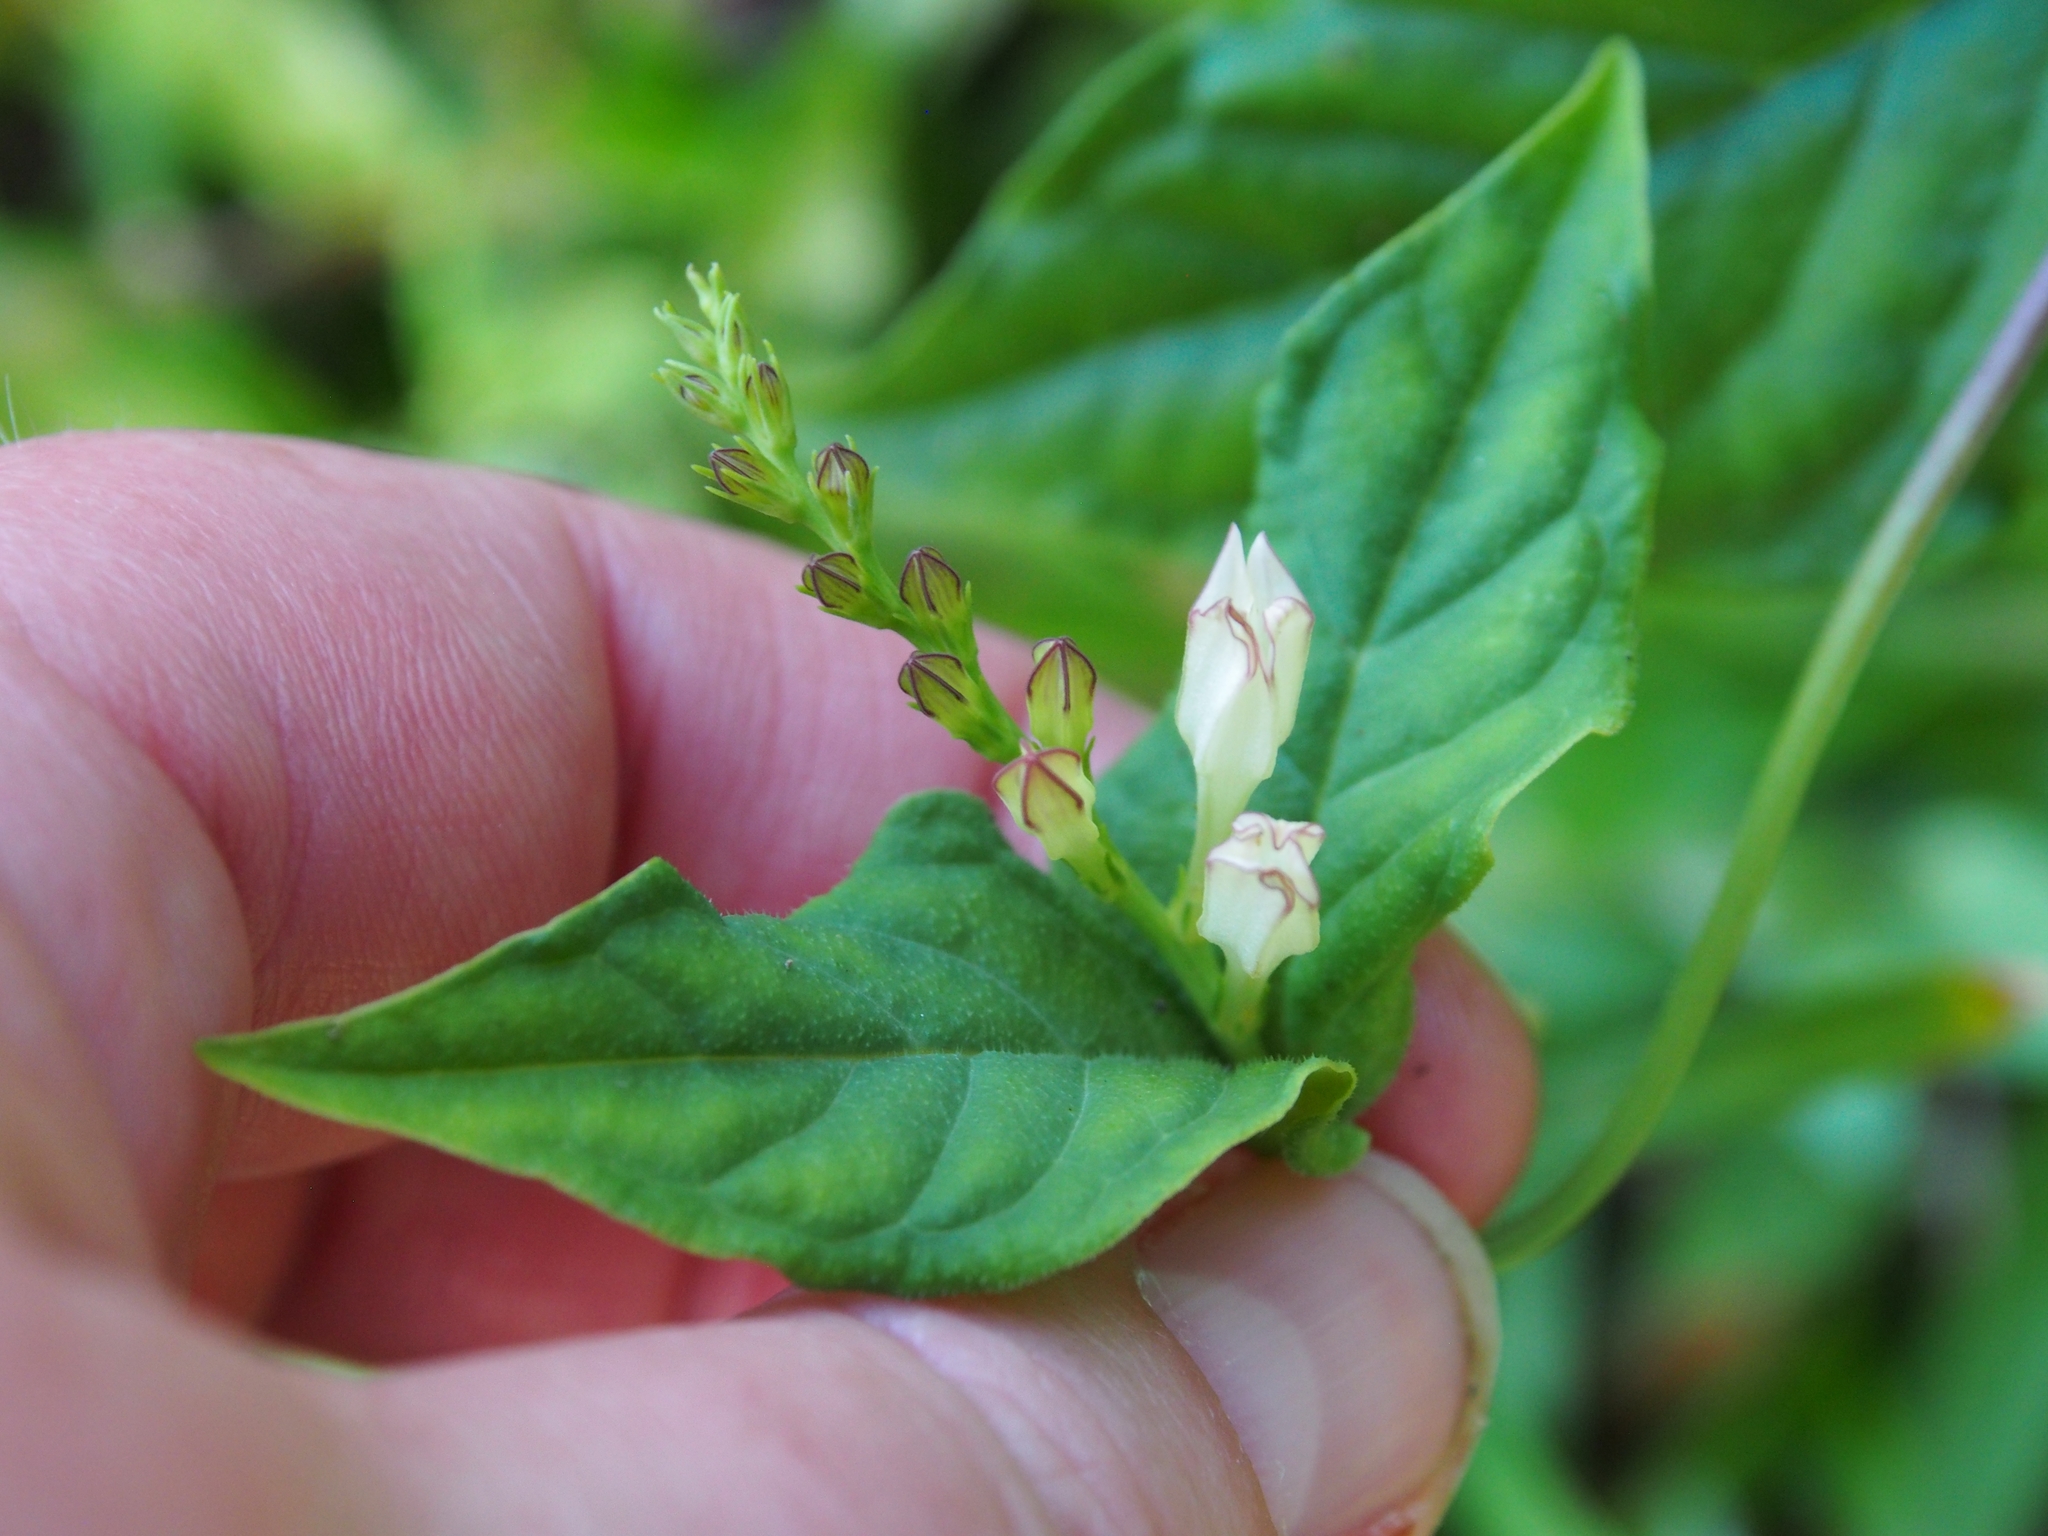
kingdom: Plantae
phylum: Tracheophyta
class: Magnoliopsida
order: Gentianales
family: Loganiaceae
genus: Spigelia
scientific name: Spigelia anthelmia
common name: West indian-pink
